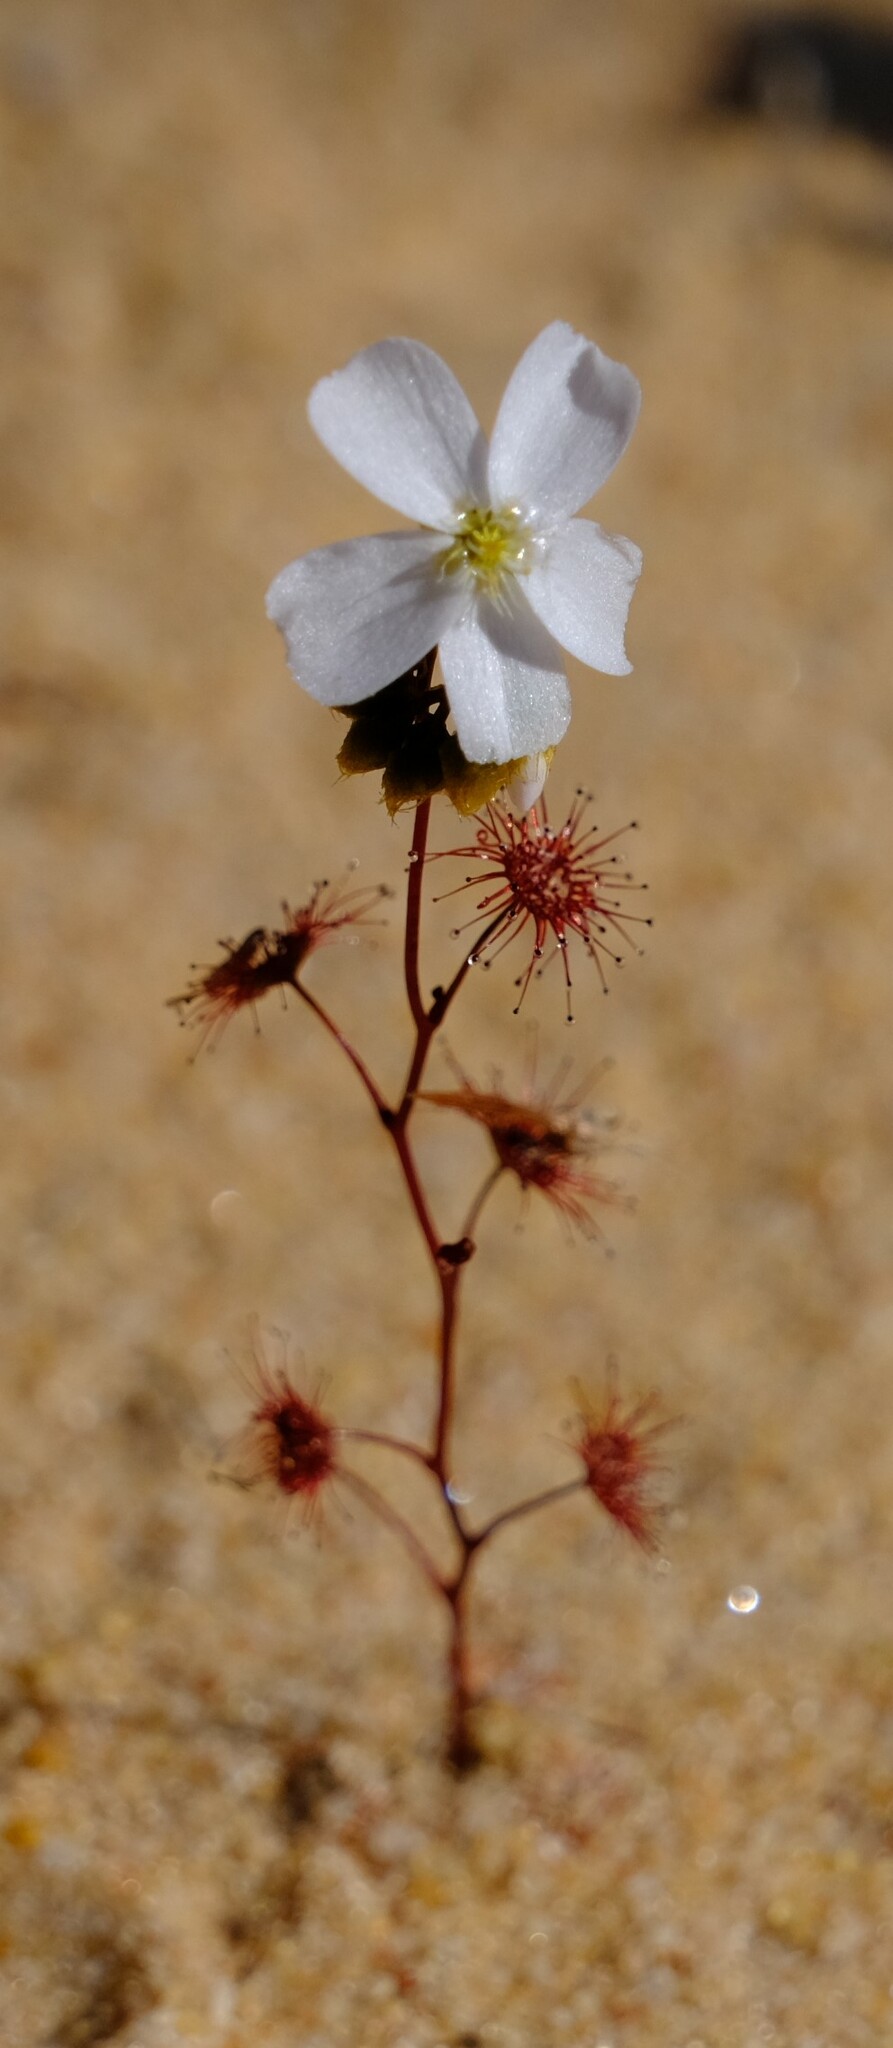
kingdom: Plantae
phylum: Tracheophyta
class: Magnoliopsida
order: Caryophyllales
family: Droseraceae
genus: Drosera
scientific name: Drosera radicans
